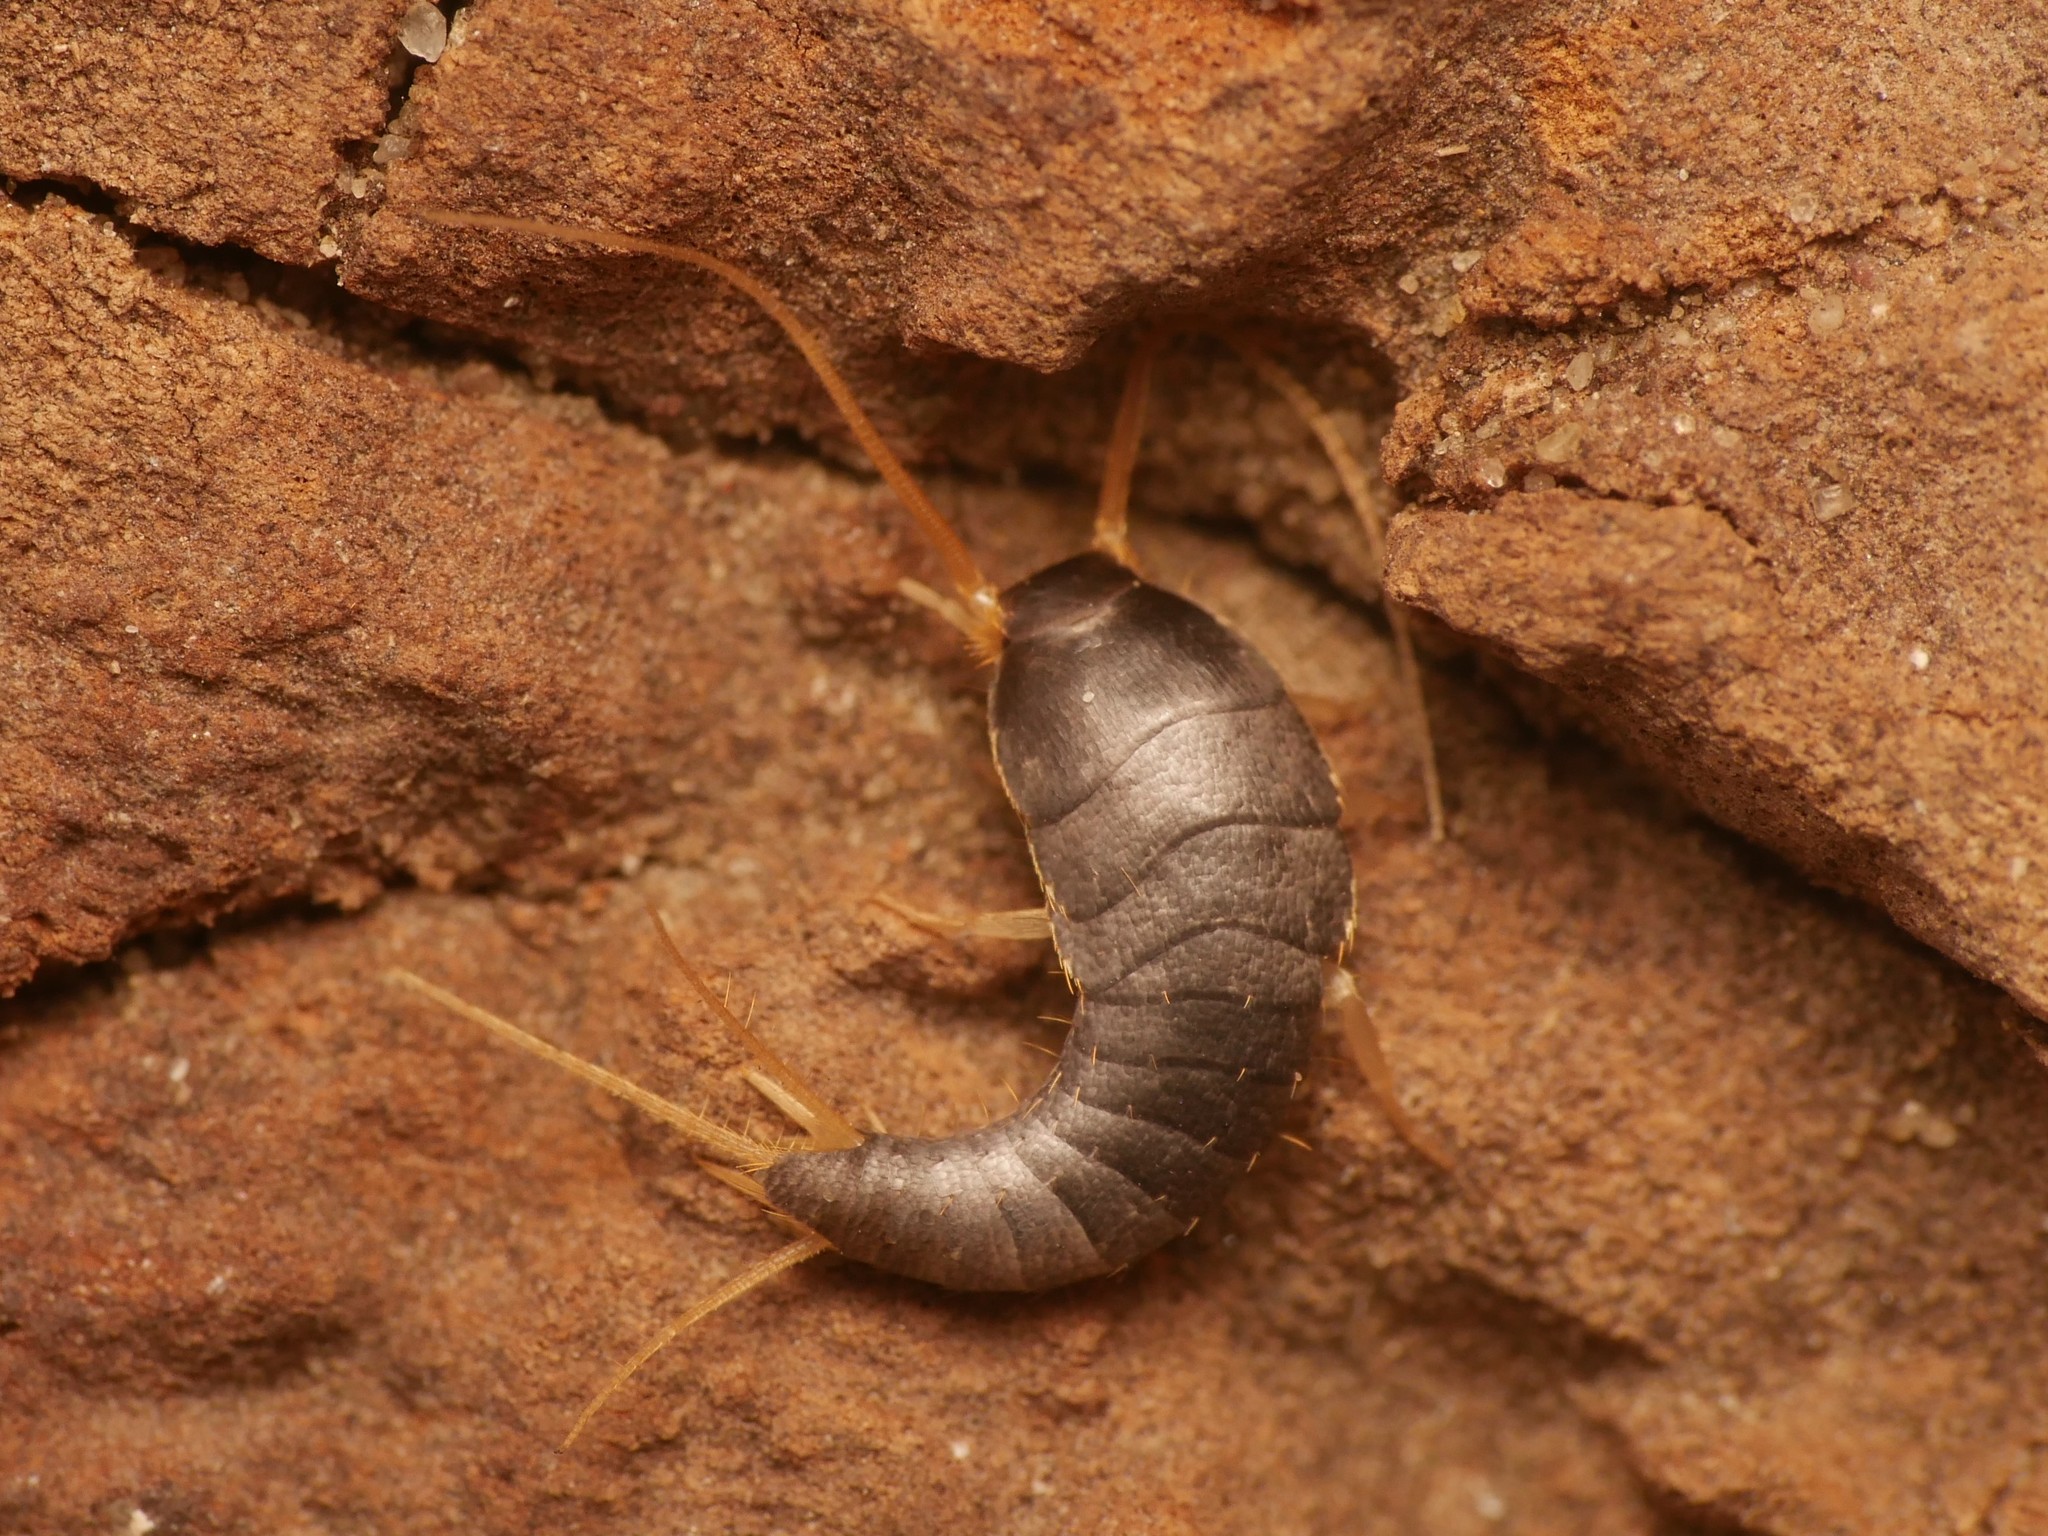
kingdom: Animalia
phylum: Arthropoda
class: Insecta
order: Zygentoma
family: Lepismatidae
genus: Lepisma
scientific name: Lepisma saccharinum
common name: Silverfish
